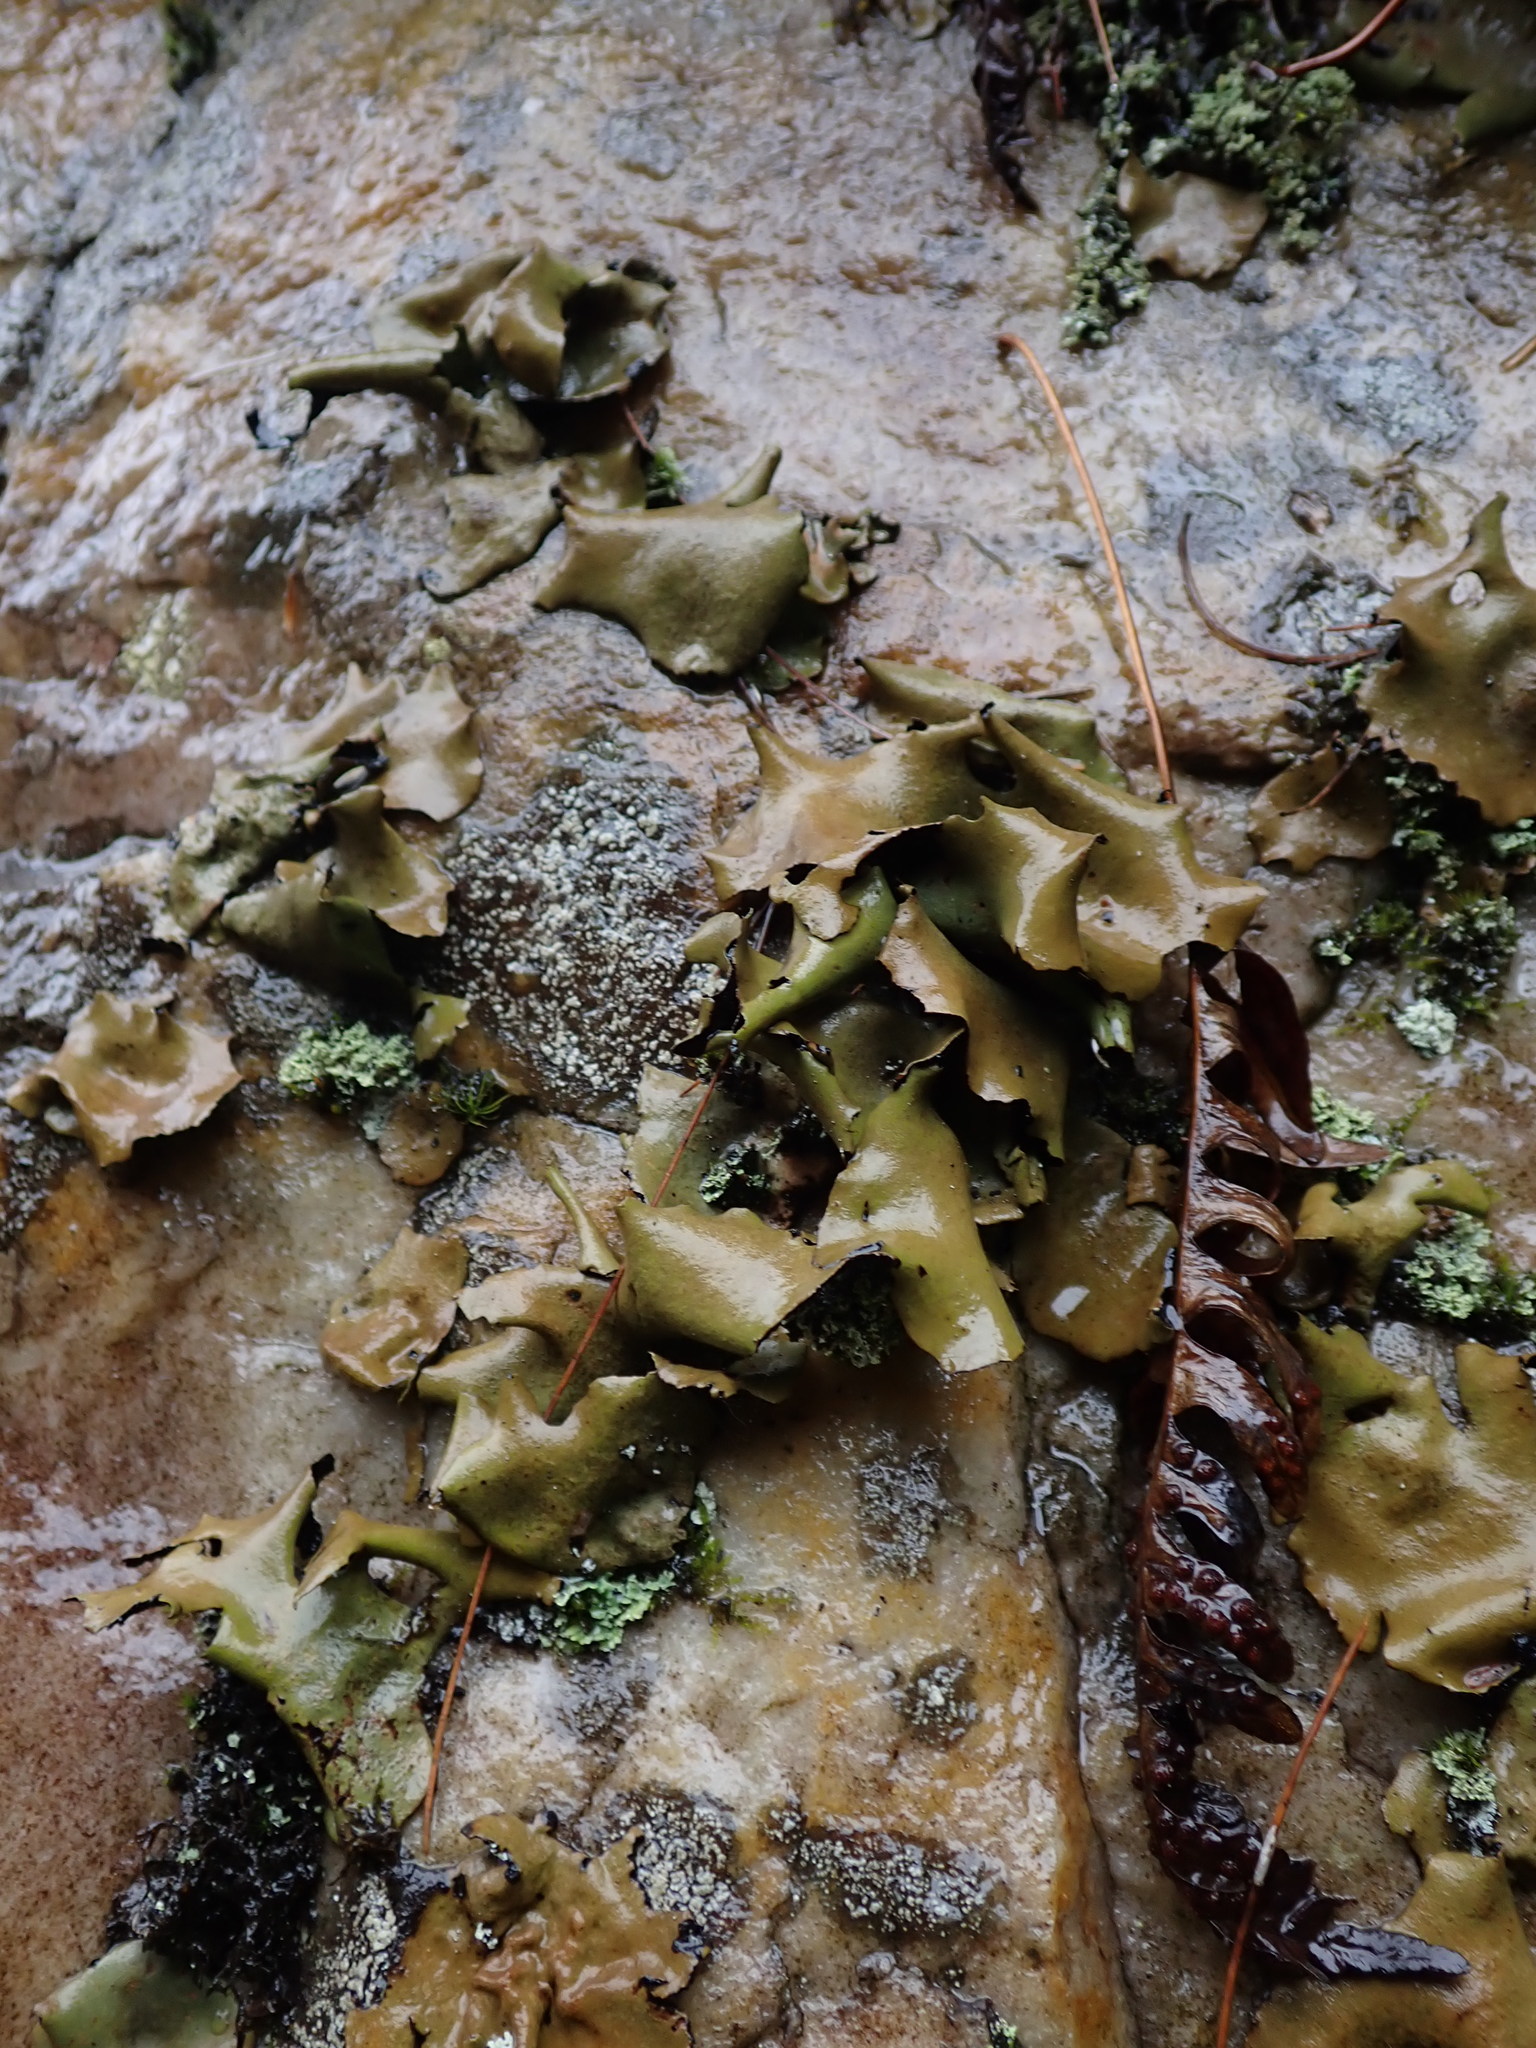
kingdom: Fungi
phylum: Ascomycota
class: Lecanoromycetes
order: Umbilicariales
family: Umbilicariaceae
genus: Umbilicaria
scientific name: Umbilicaria mammulata
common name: Smooth rock tripe
